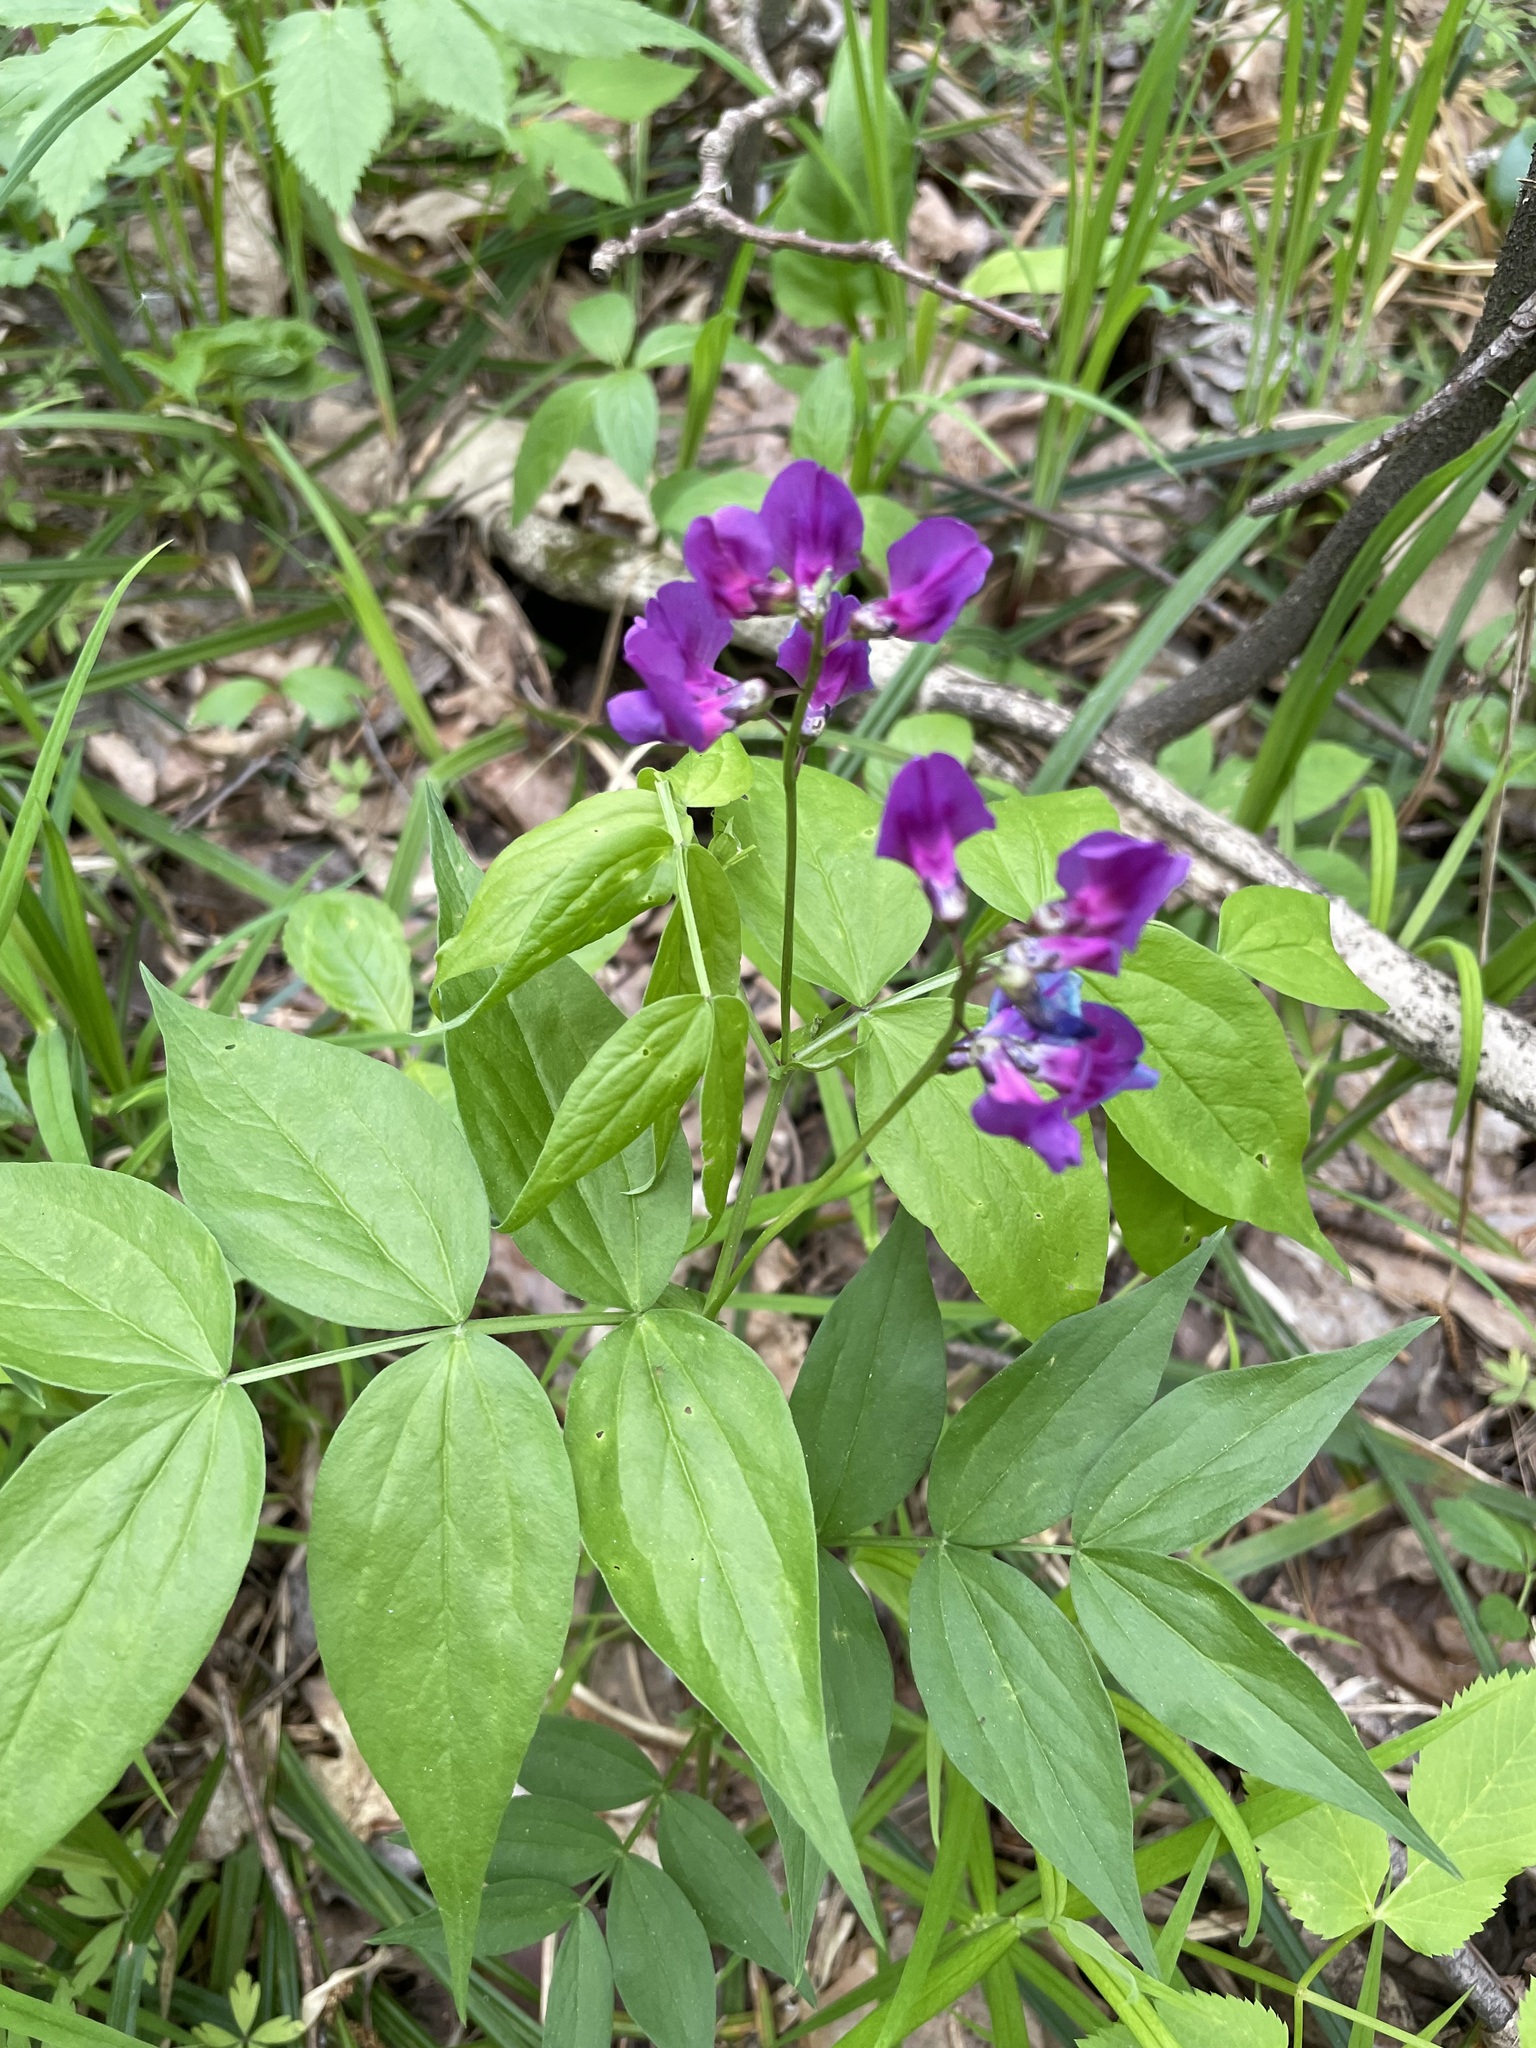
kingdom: Plantae
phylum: Tracheophyta
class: Magnoliopsida
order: Fabales
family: Fabaceae
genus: Lathyrus
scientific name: Lathyrus vernus
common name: Spring pea
